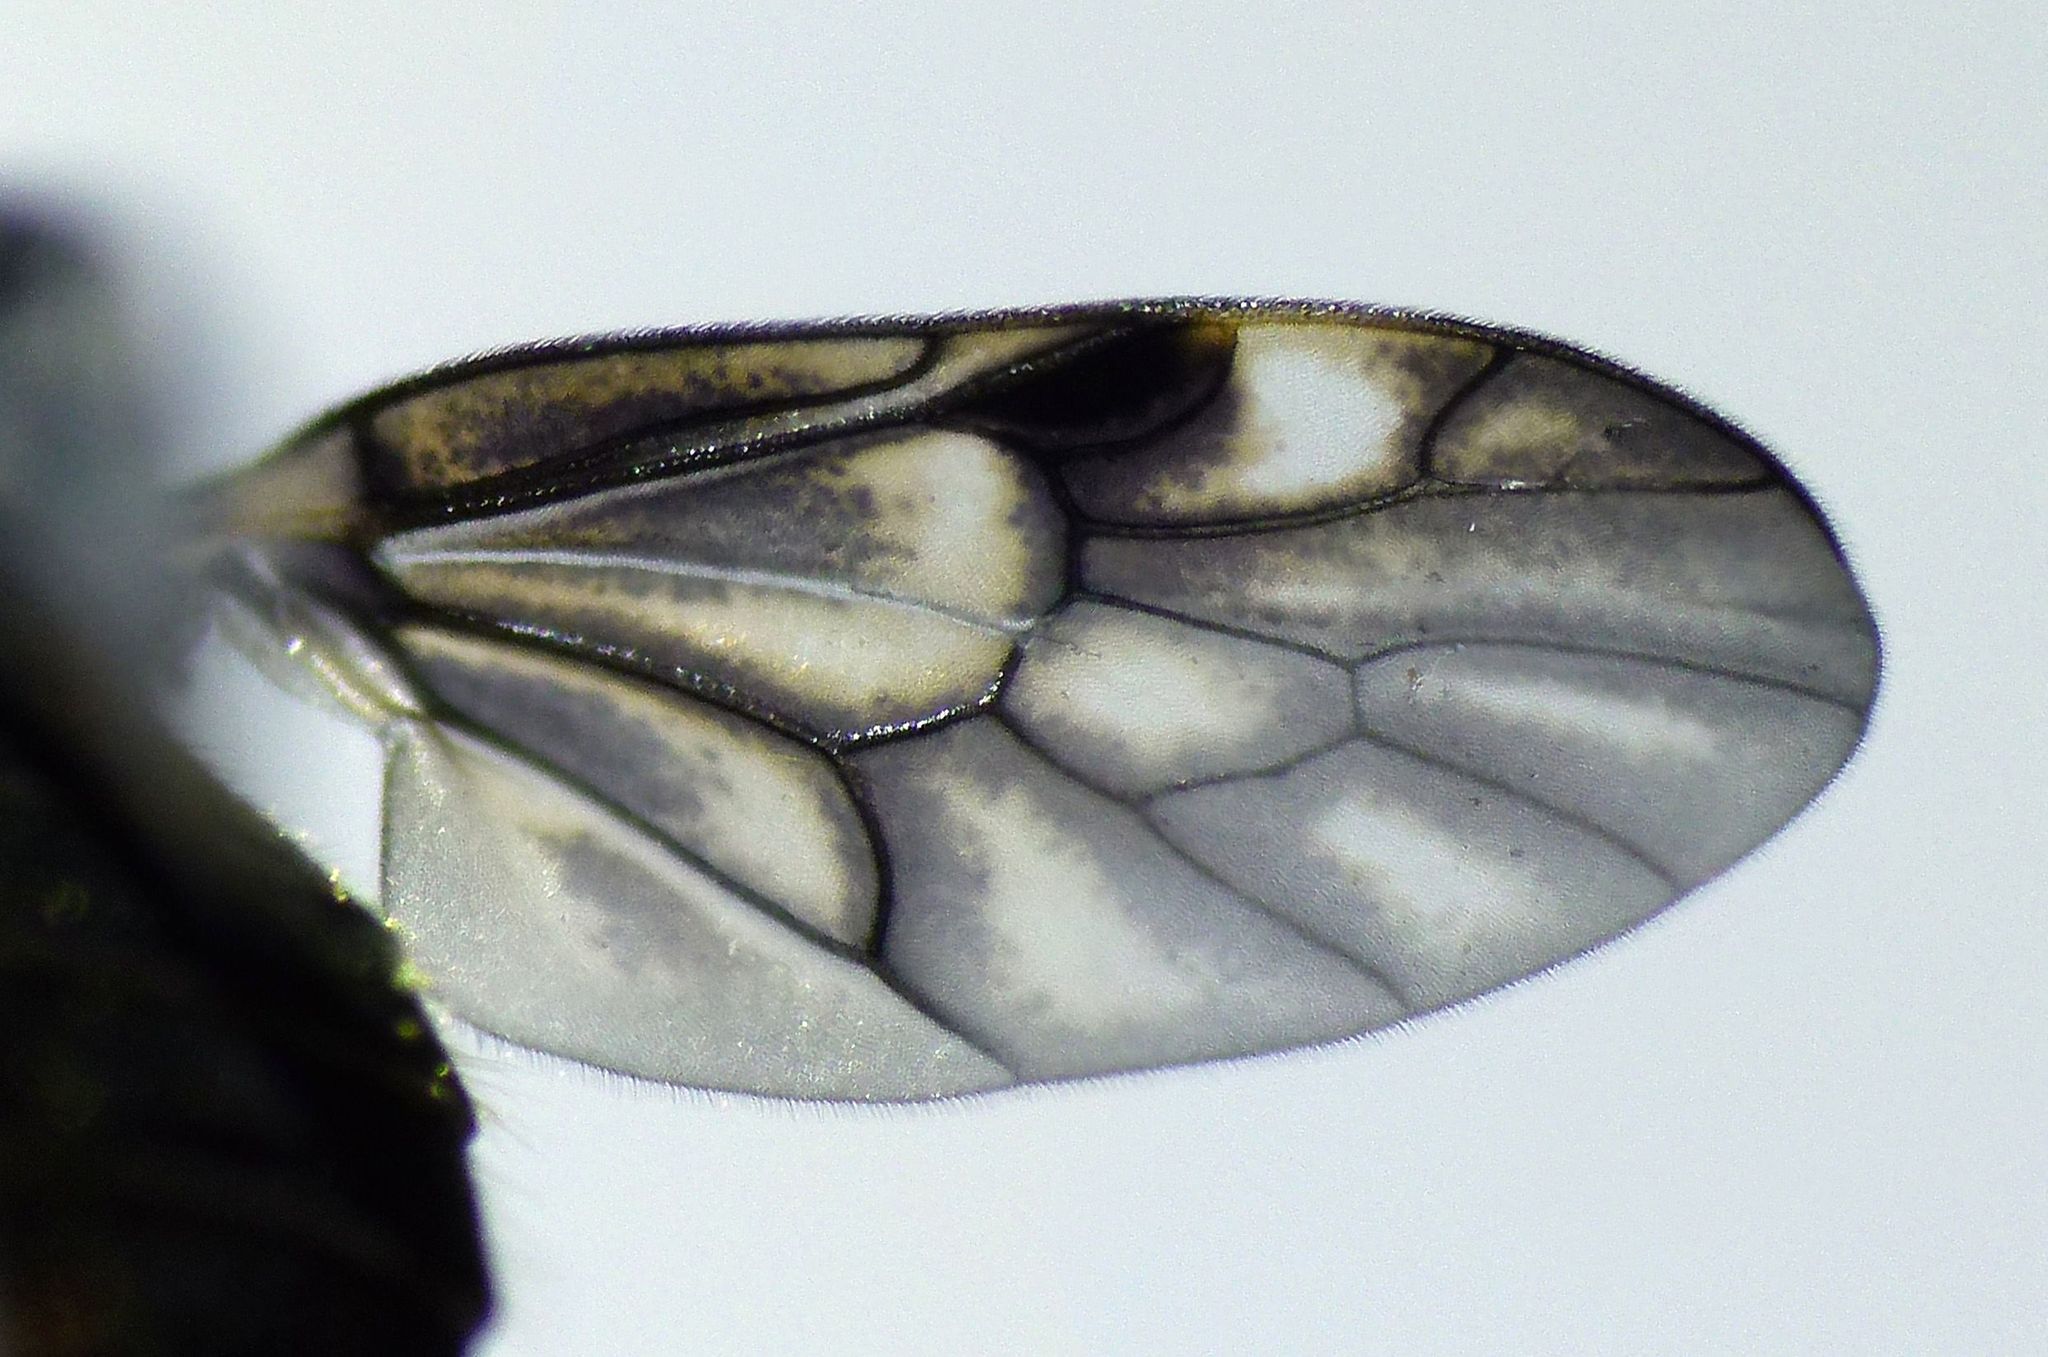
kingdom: Animalia
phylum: Arthropoda
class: Insecta
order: Diptera
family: Stratiomyidae
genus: Berisina
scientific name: Berisina maculipennis
